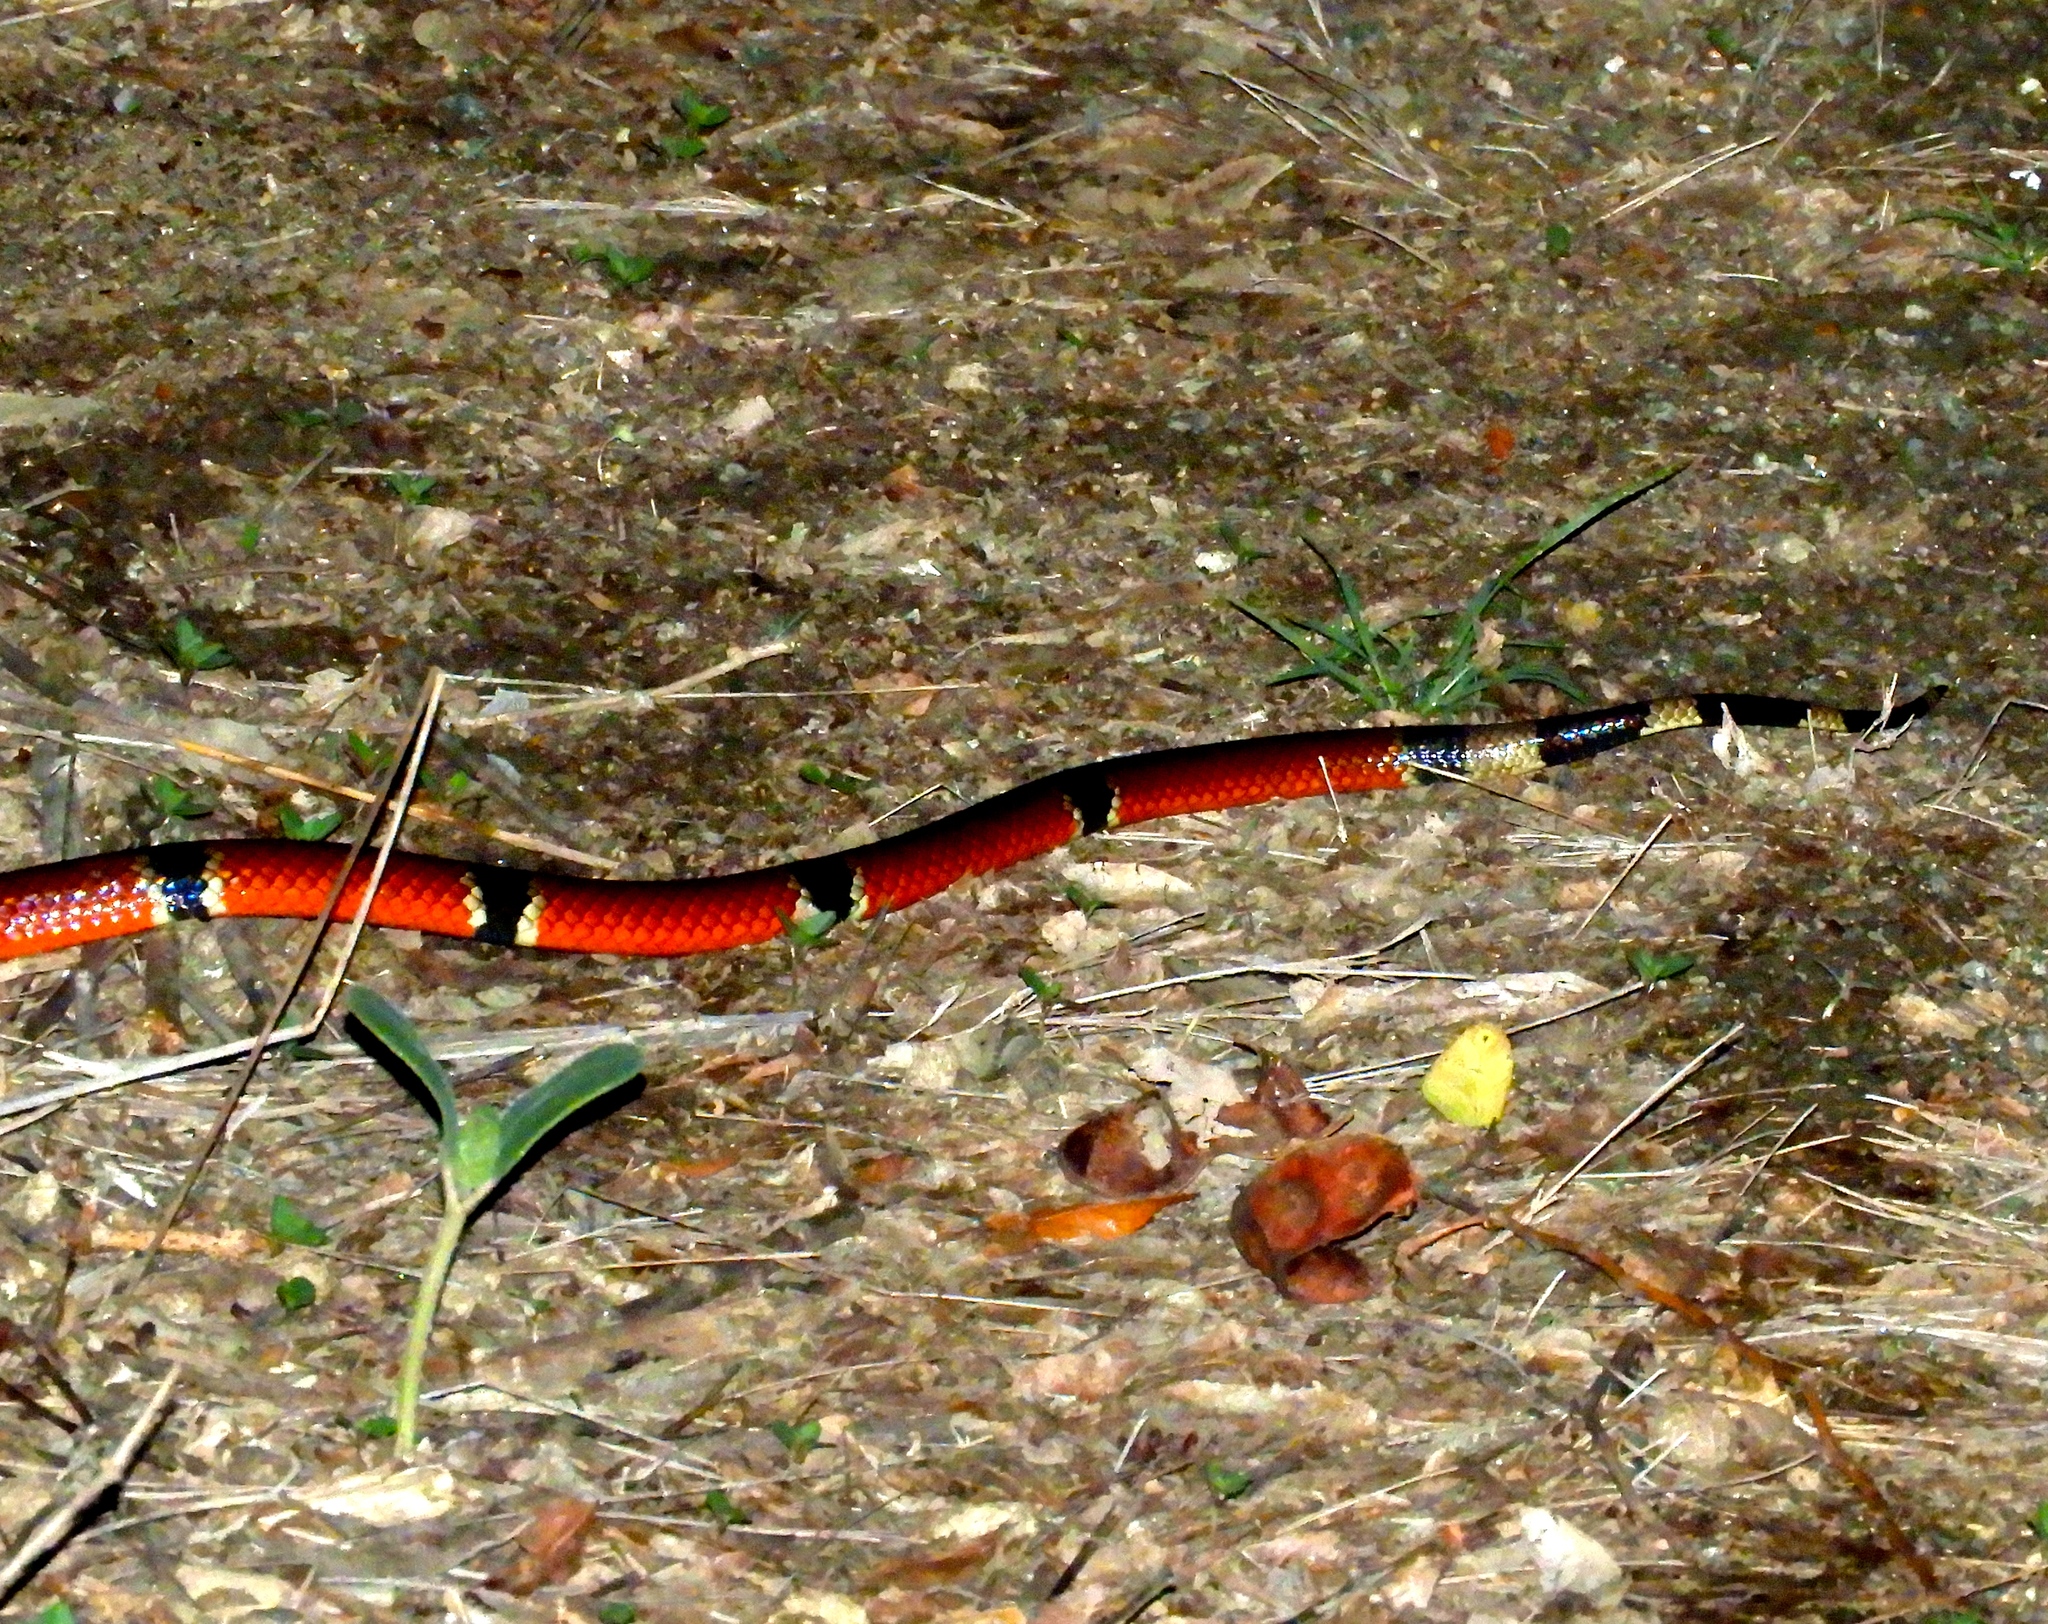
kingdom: Animalia
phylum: Chordata
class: Squamata
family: Elapidae
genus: Micrurus
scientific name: Micrurus distans
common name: Clear-banded coral snake
